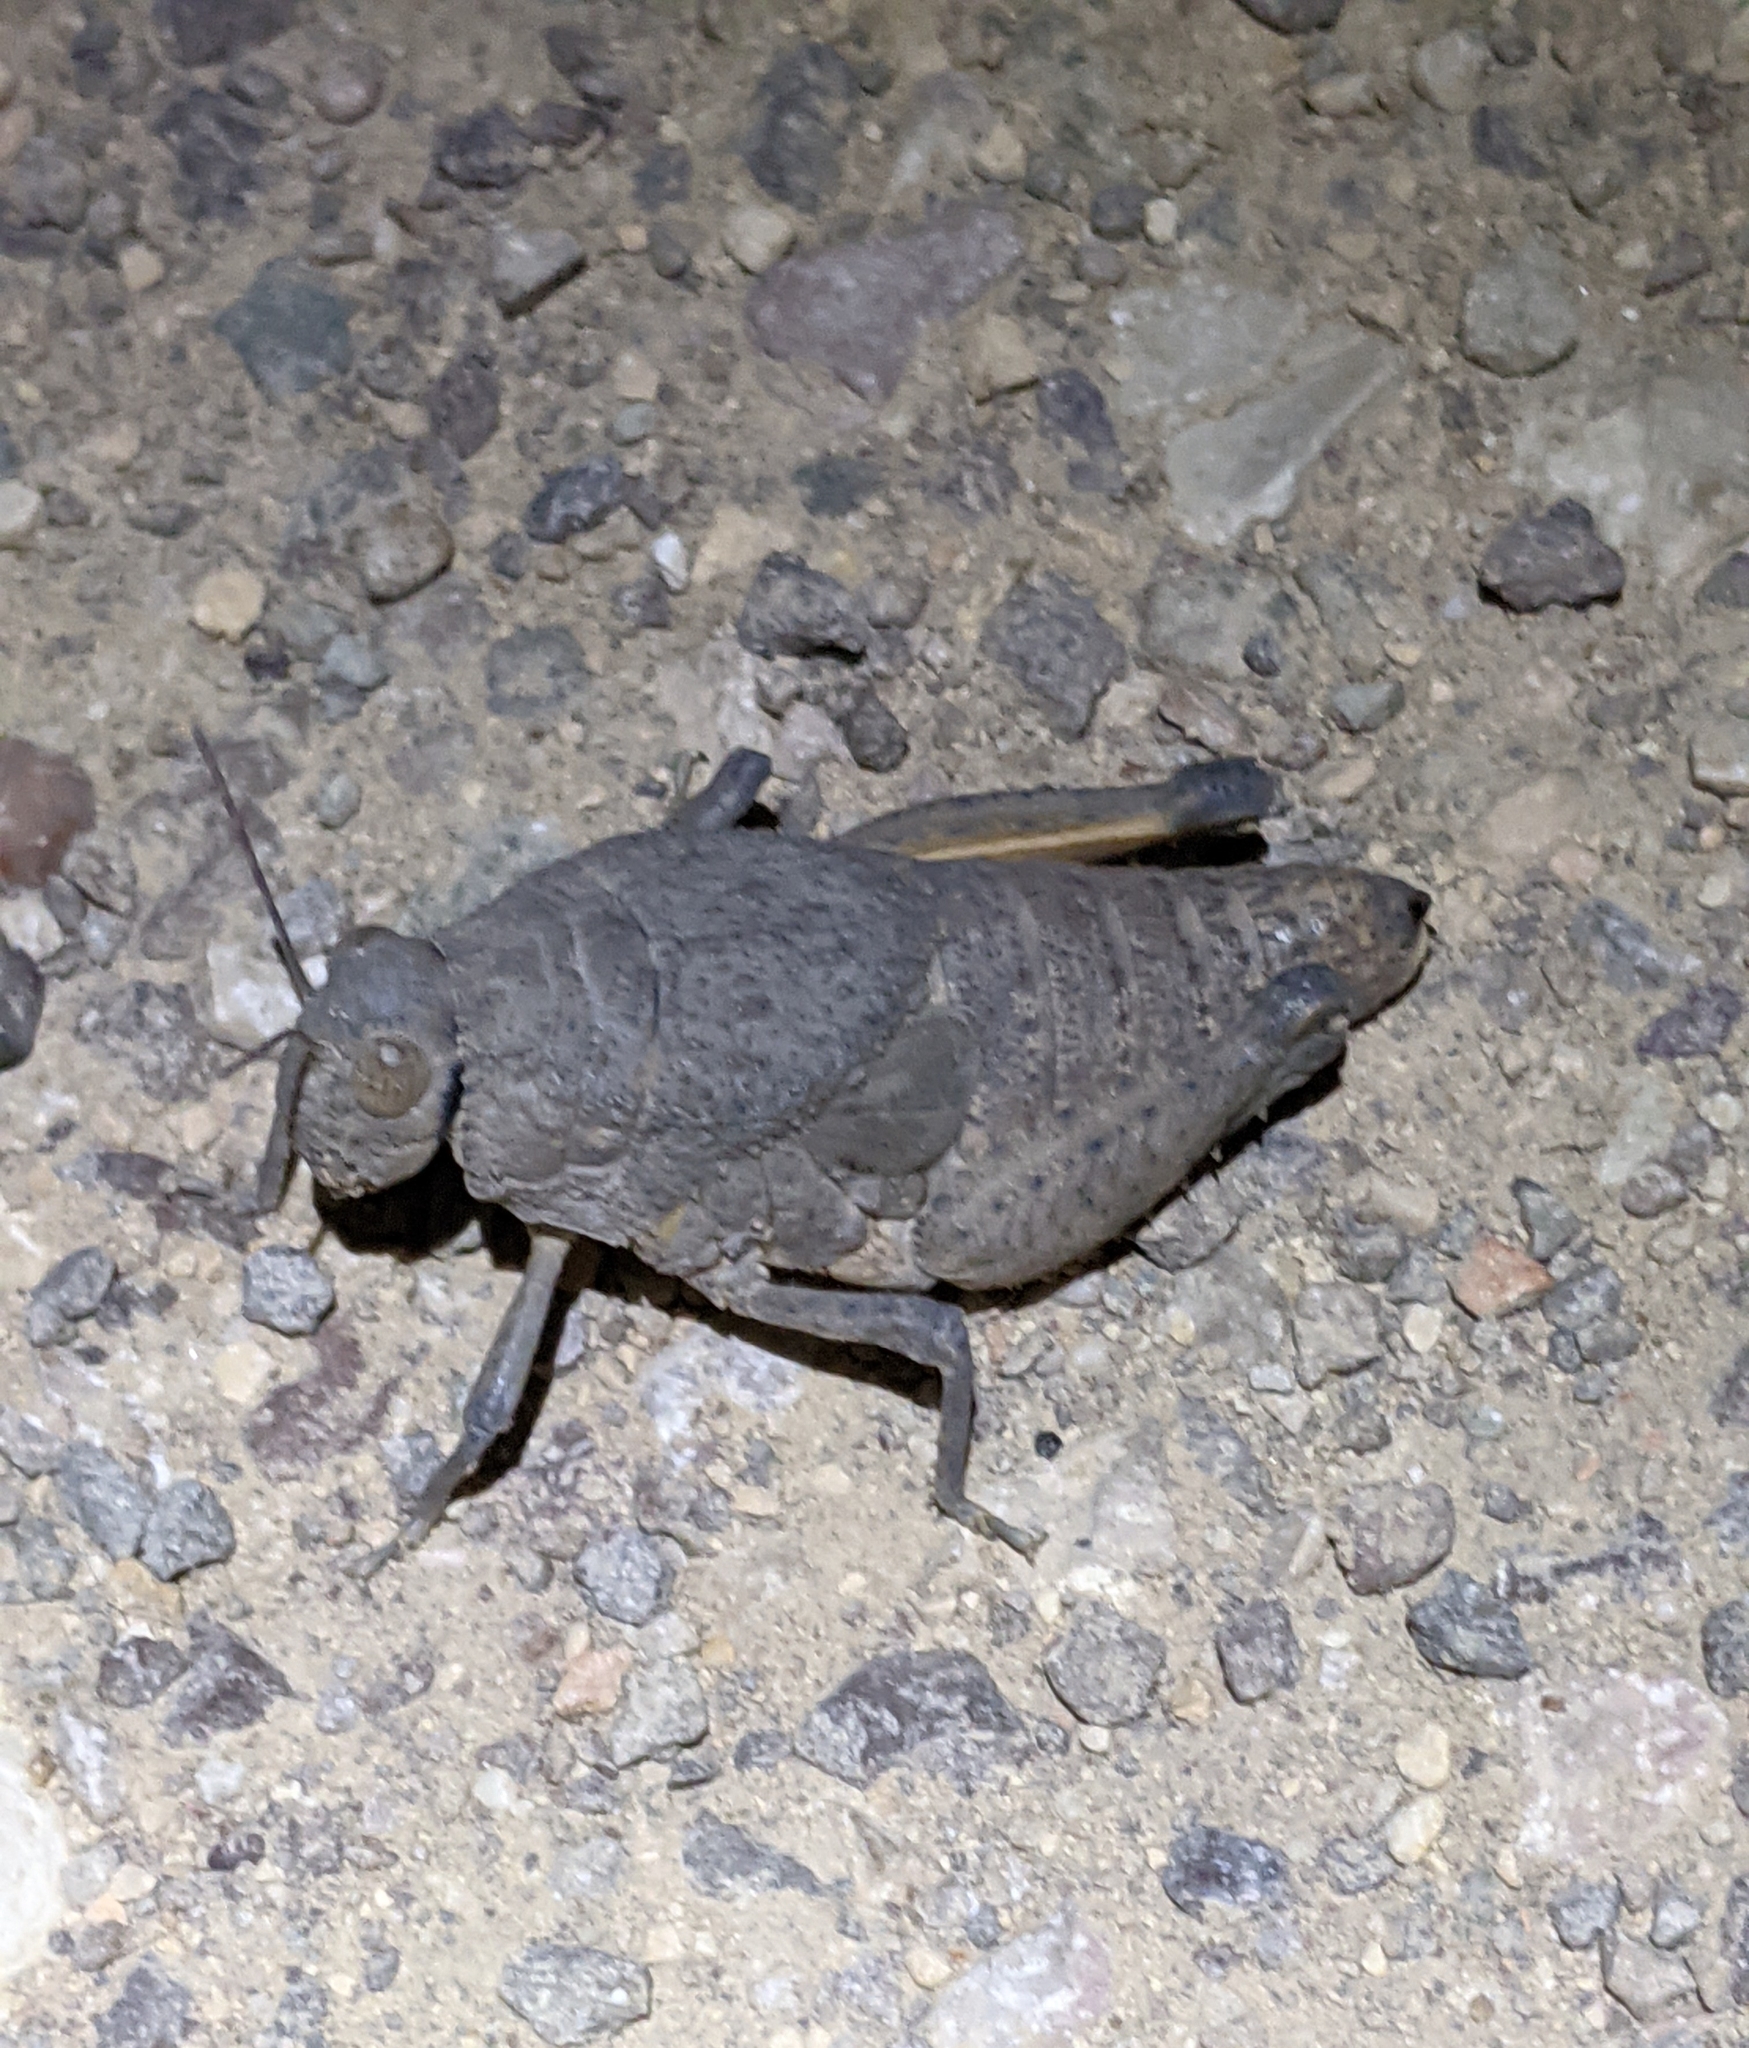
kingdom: Animalia
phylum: Arthropoda
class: Insecta
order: Orthoptera
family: Romaleidae
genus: Phrynotettix
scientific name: Phrynotettix robustus
